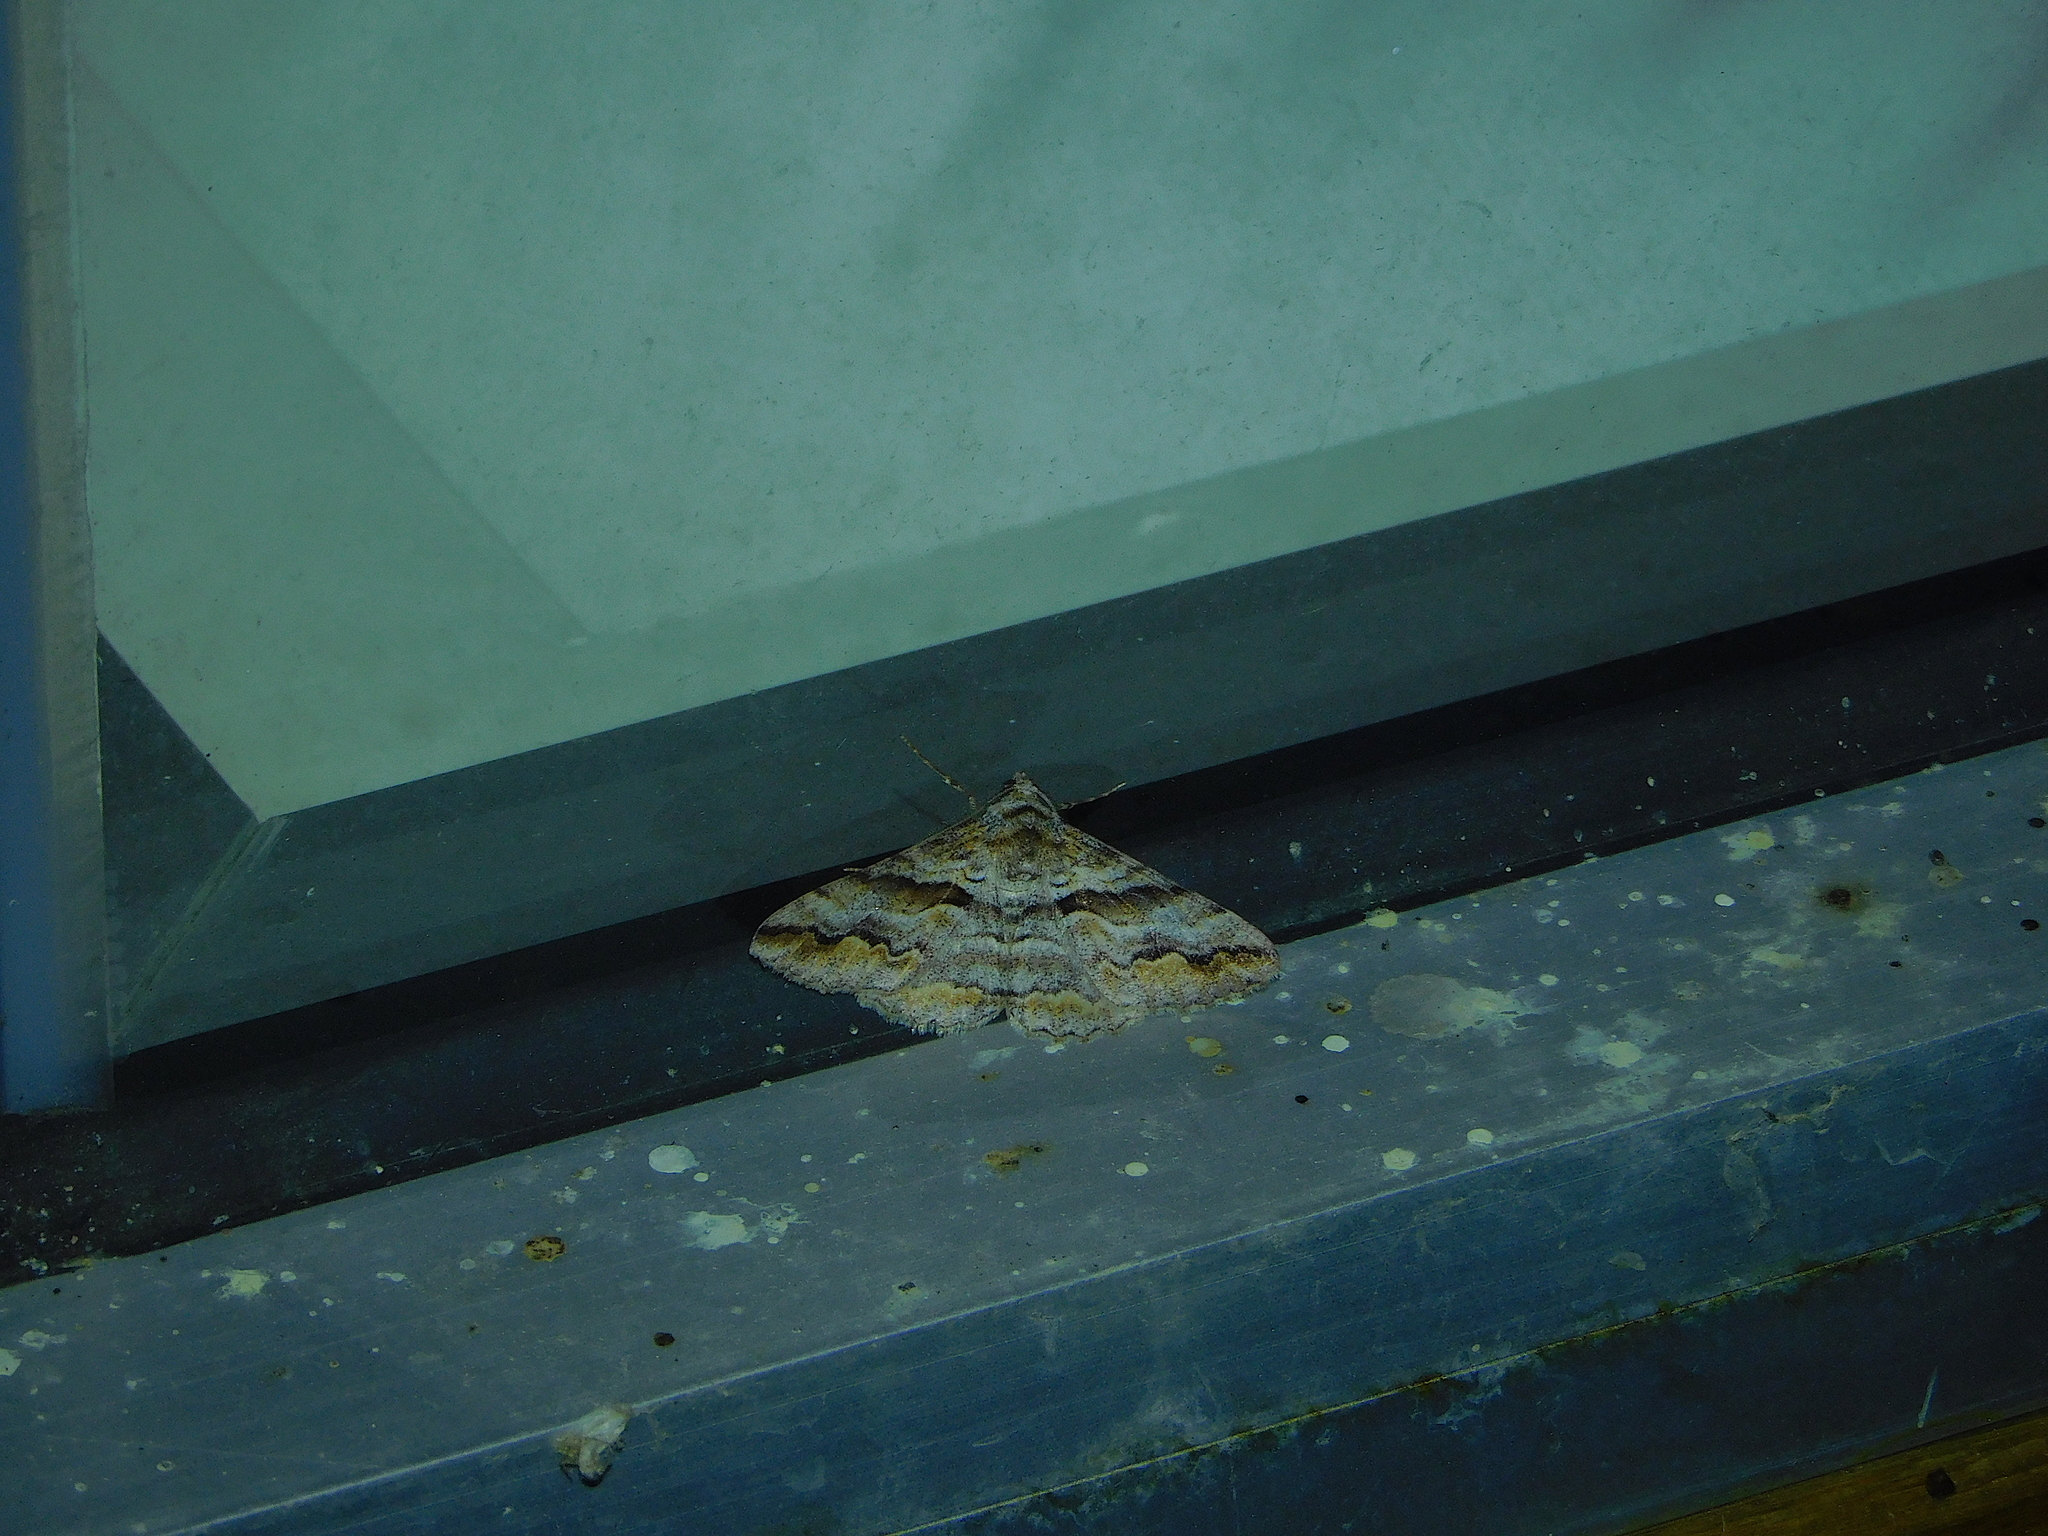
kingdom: Animalia
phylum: Arthropoda
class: Insecta
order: Lepidoptera
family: Geometridae
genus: Gastrinodes
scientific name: Gastrinodes bitaeniaria
